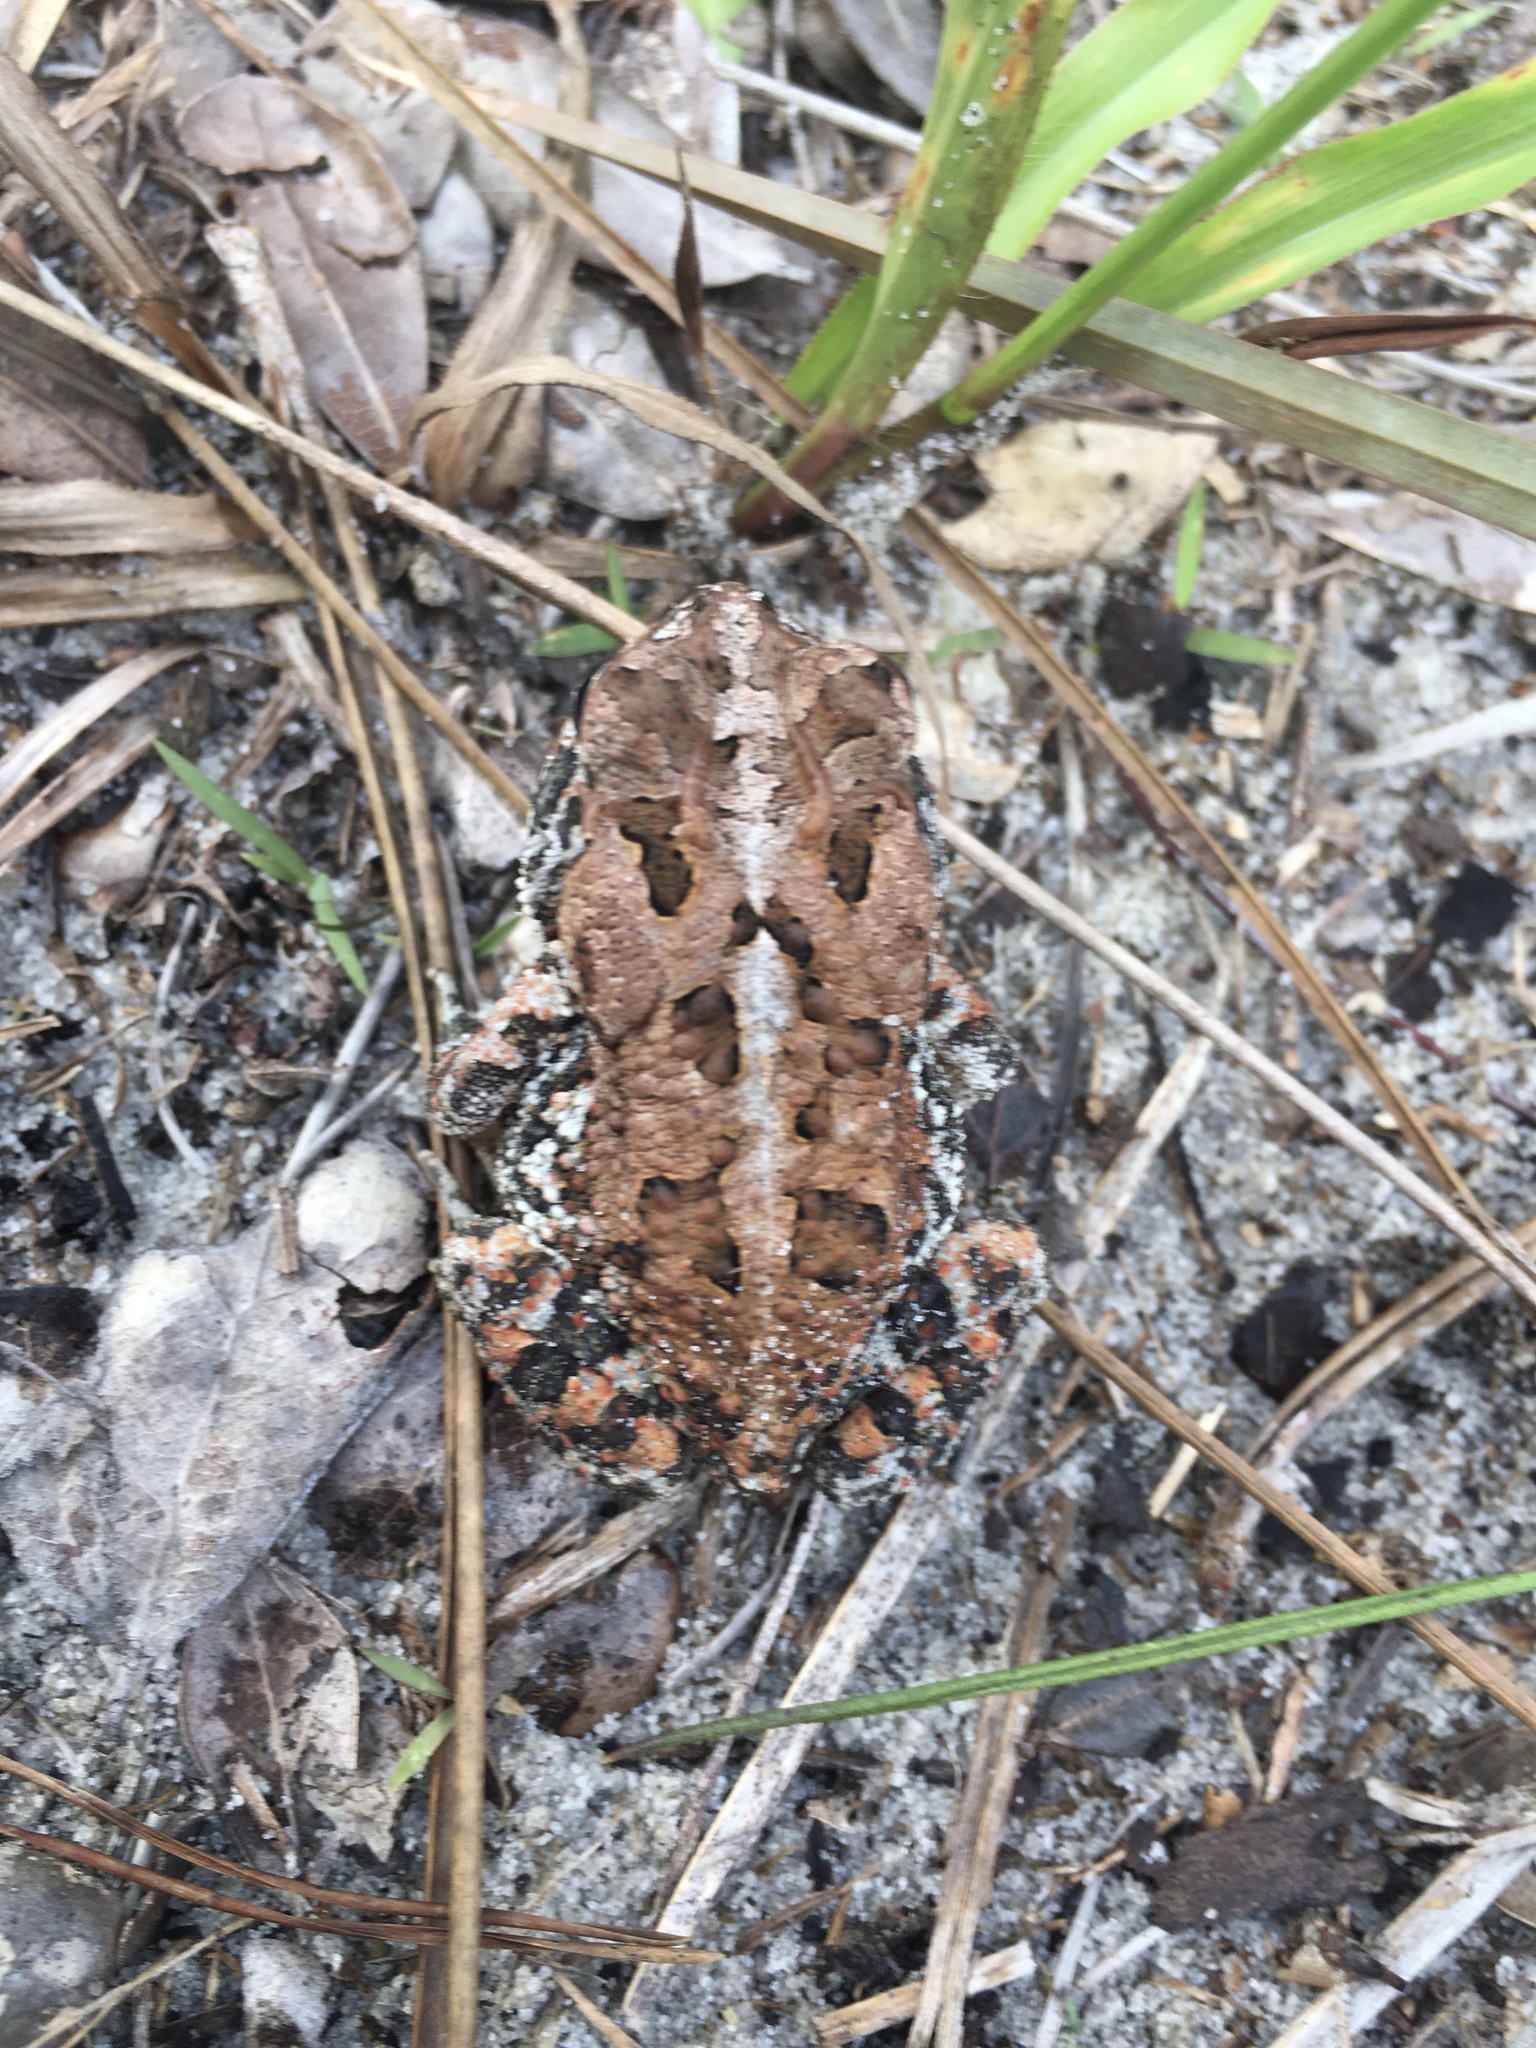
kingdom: Animalia
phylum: Chordata
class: Amphibia
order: Anura
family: Bufonidae
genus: Anaxyrus
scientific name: Anaxyrus terrestris
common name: Southern toad
